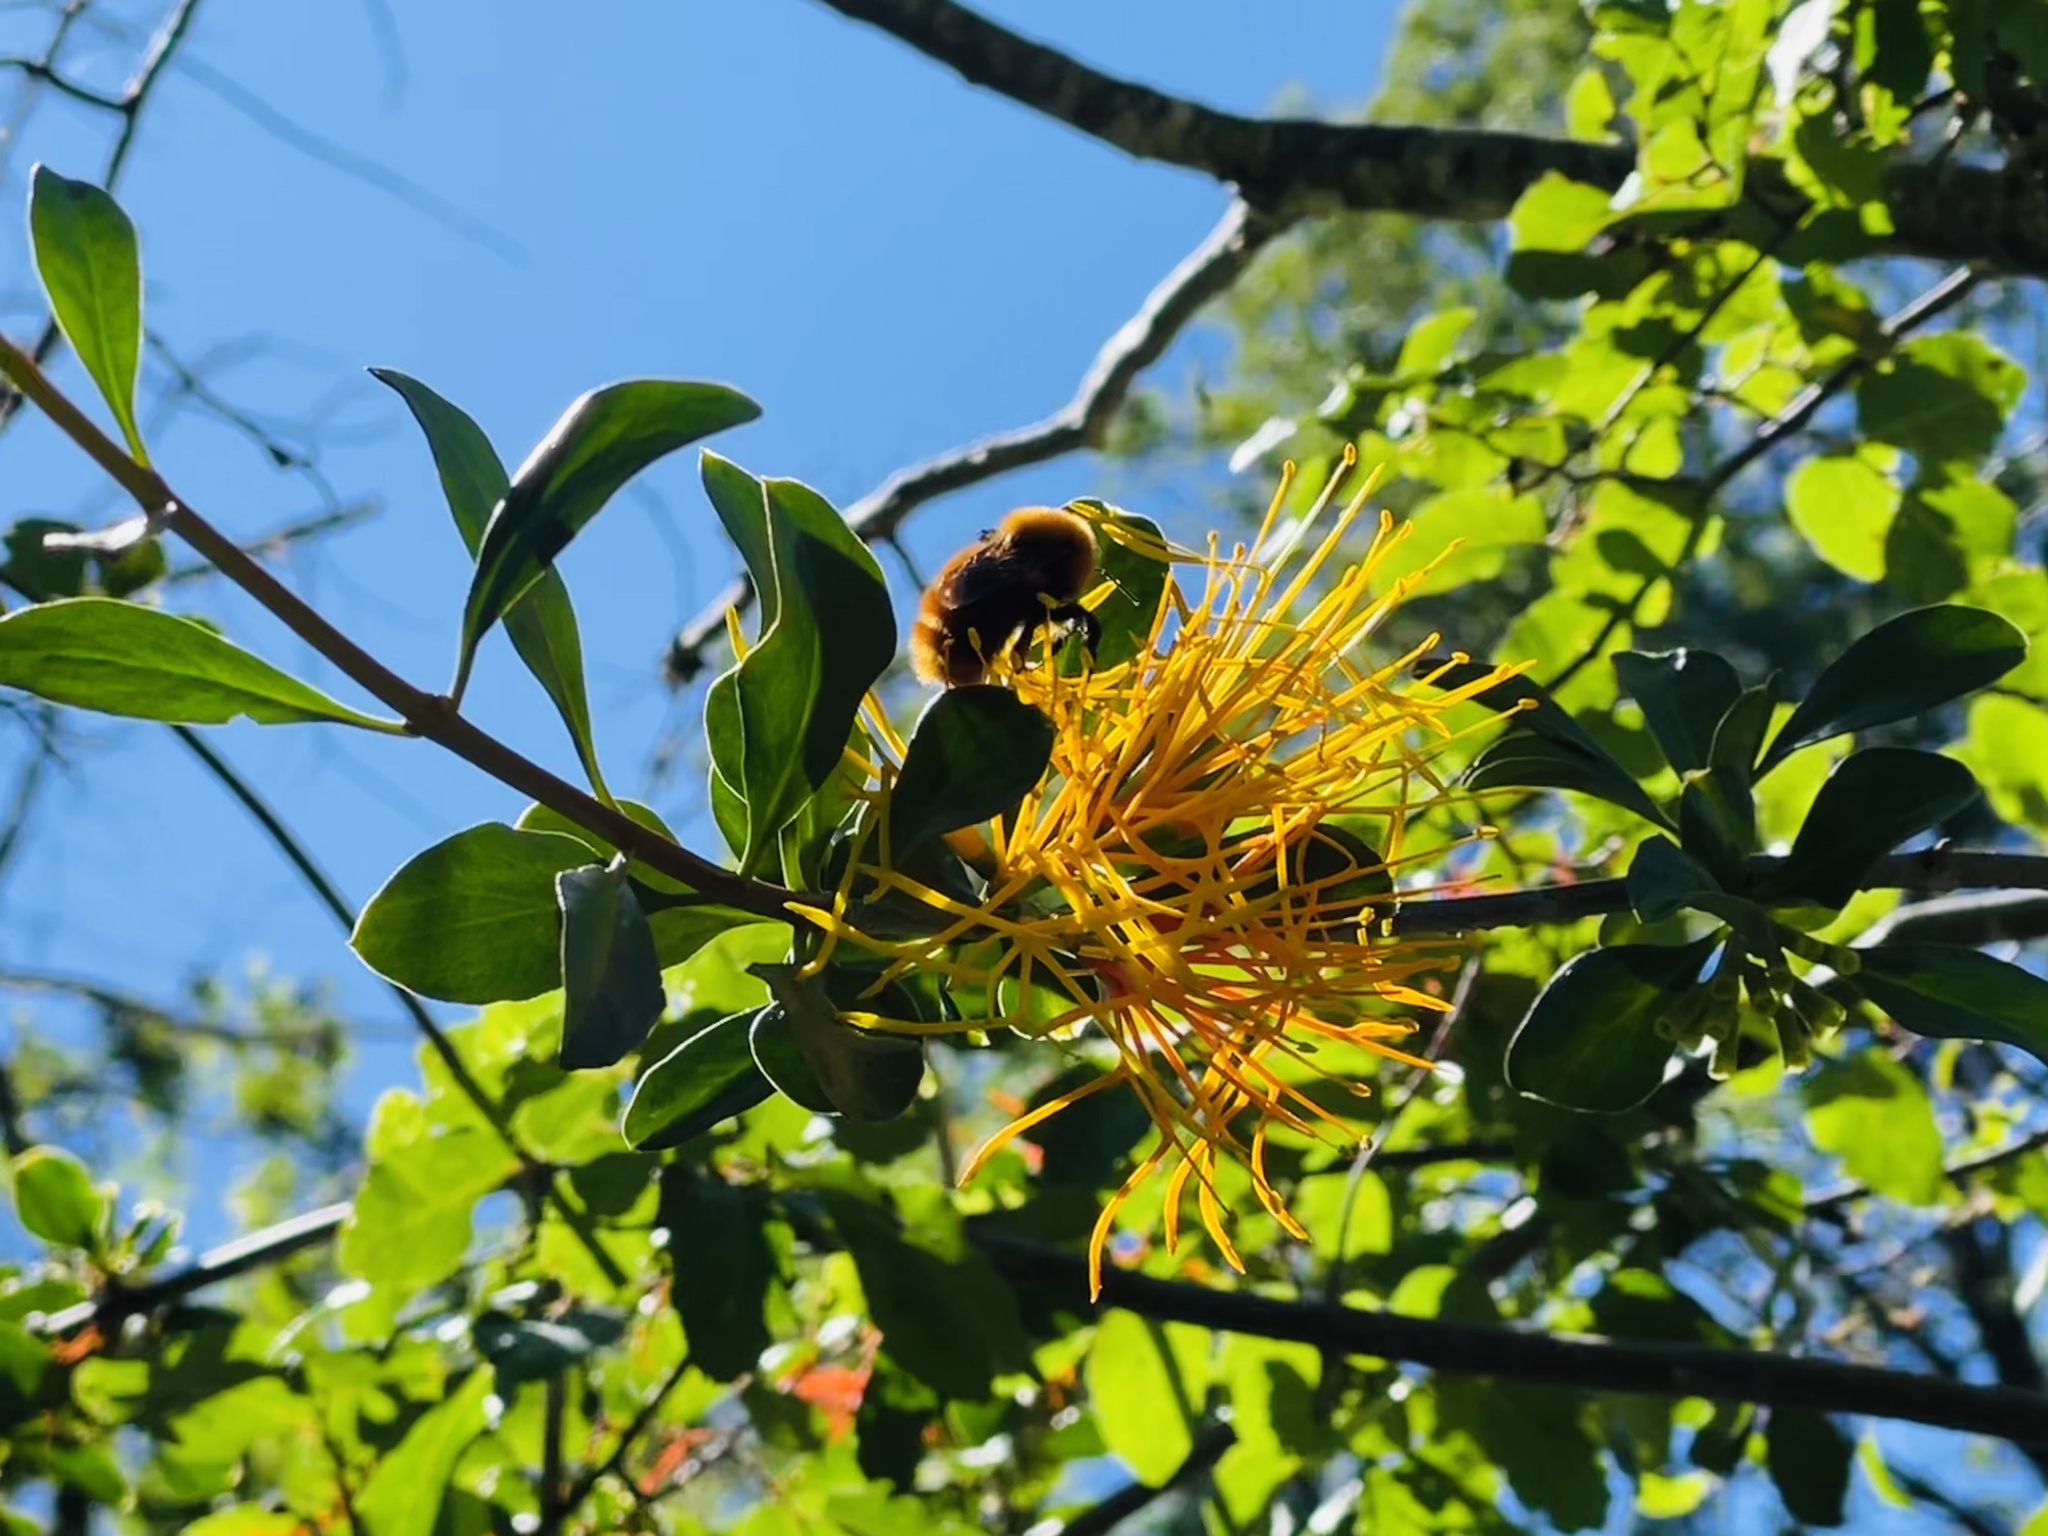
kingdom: Animalia
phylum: Arthropoda
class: Insecta
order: Hymenoptera
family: Apidae
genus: Bombus
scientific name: Bombus dahlbomii
